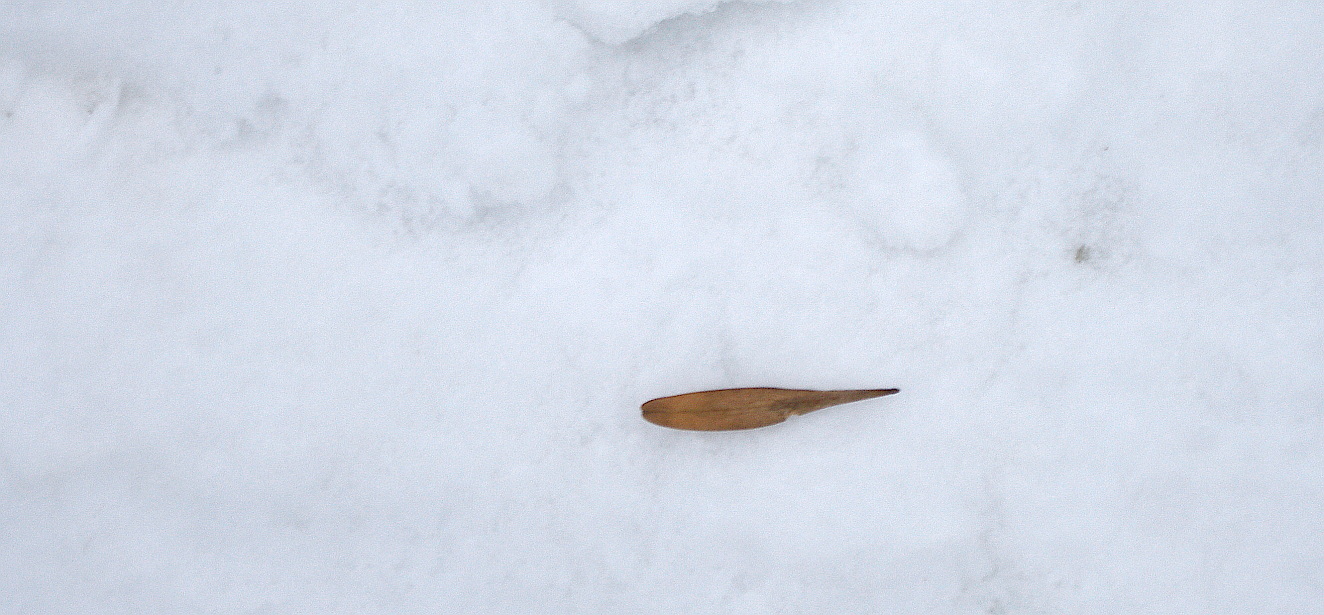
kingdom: Plantae
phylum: Tracheophyta
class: Magnoliopsida
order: Lamiales
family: Oleaceae
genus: Fraxinus
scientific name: Fraxinus pennsylvanica
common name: Green ash
